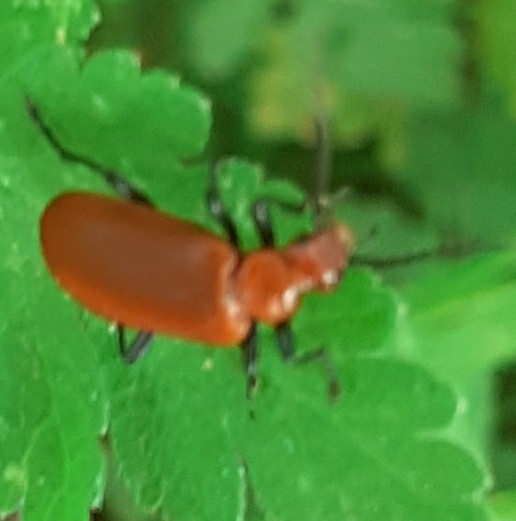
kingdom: Animalia
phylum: Arthropoda
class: Insecta
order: Coleoptera
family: Pyrochroidae
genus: Pyrochroa
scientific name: Pyrochroa serraticornis
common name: Red-headed cardinal beetle
